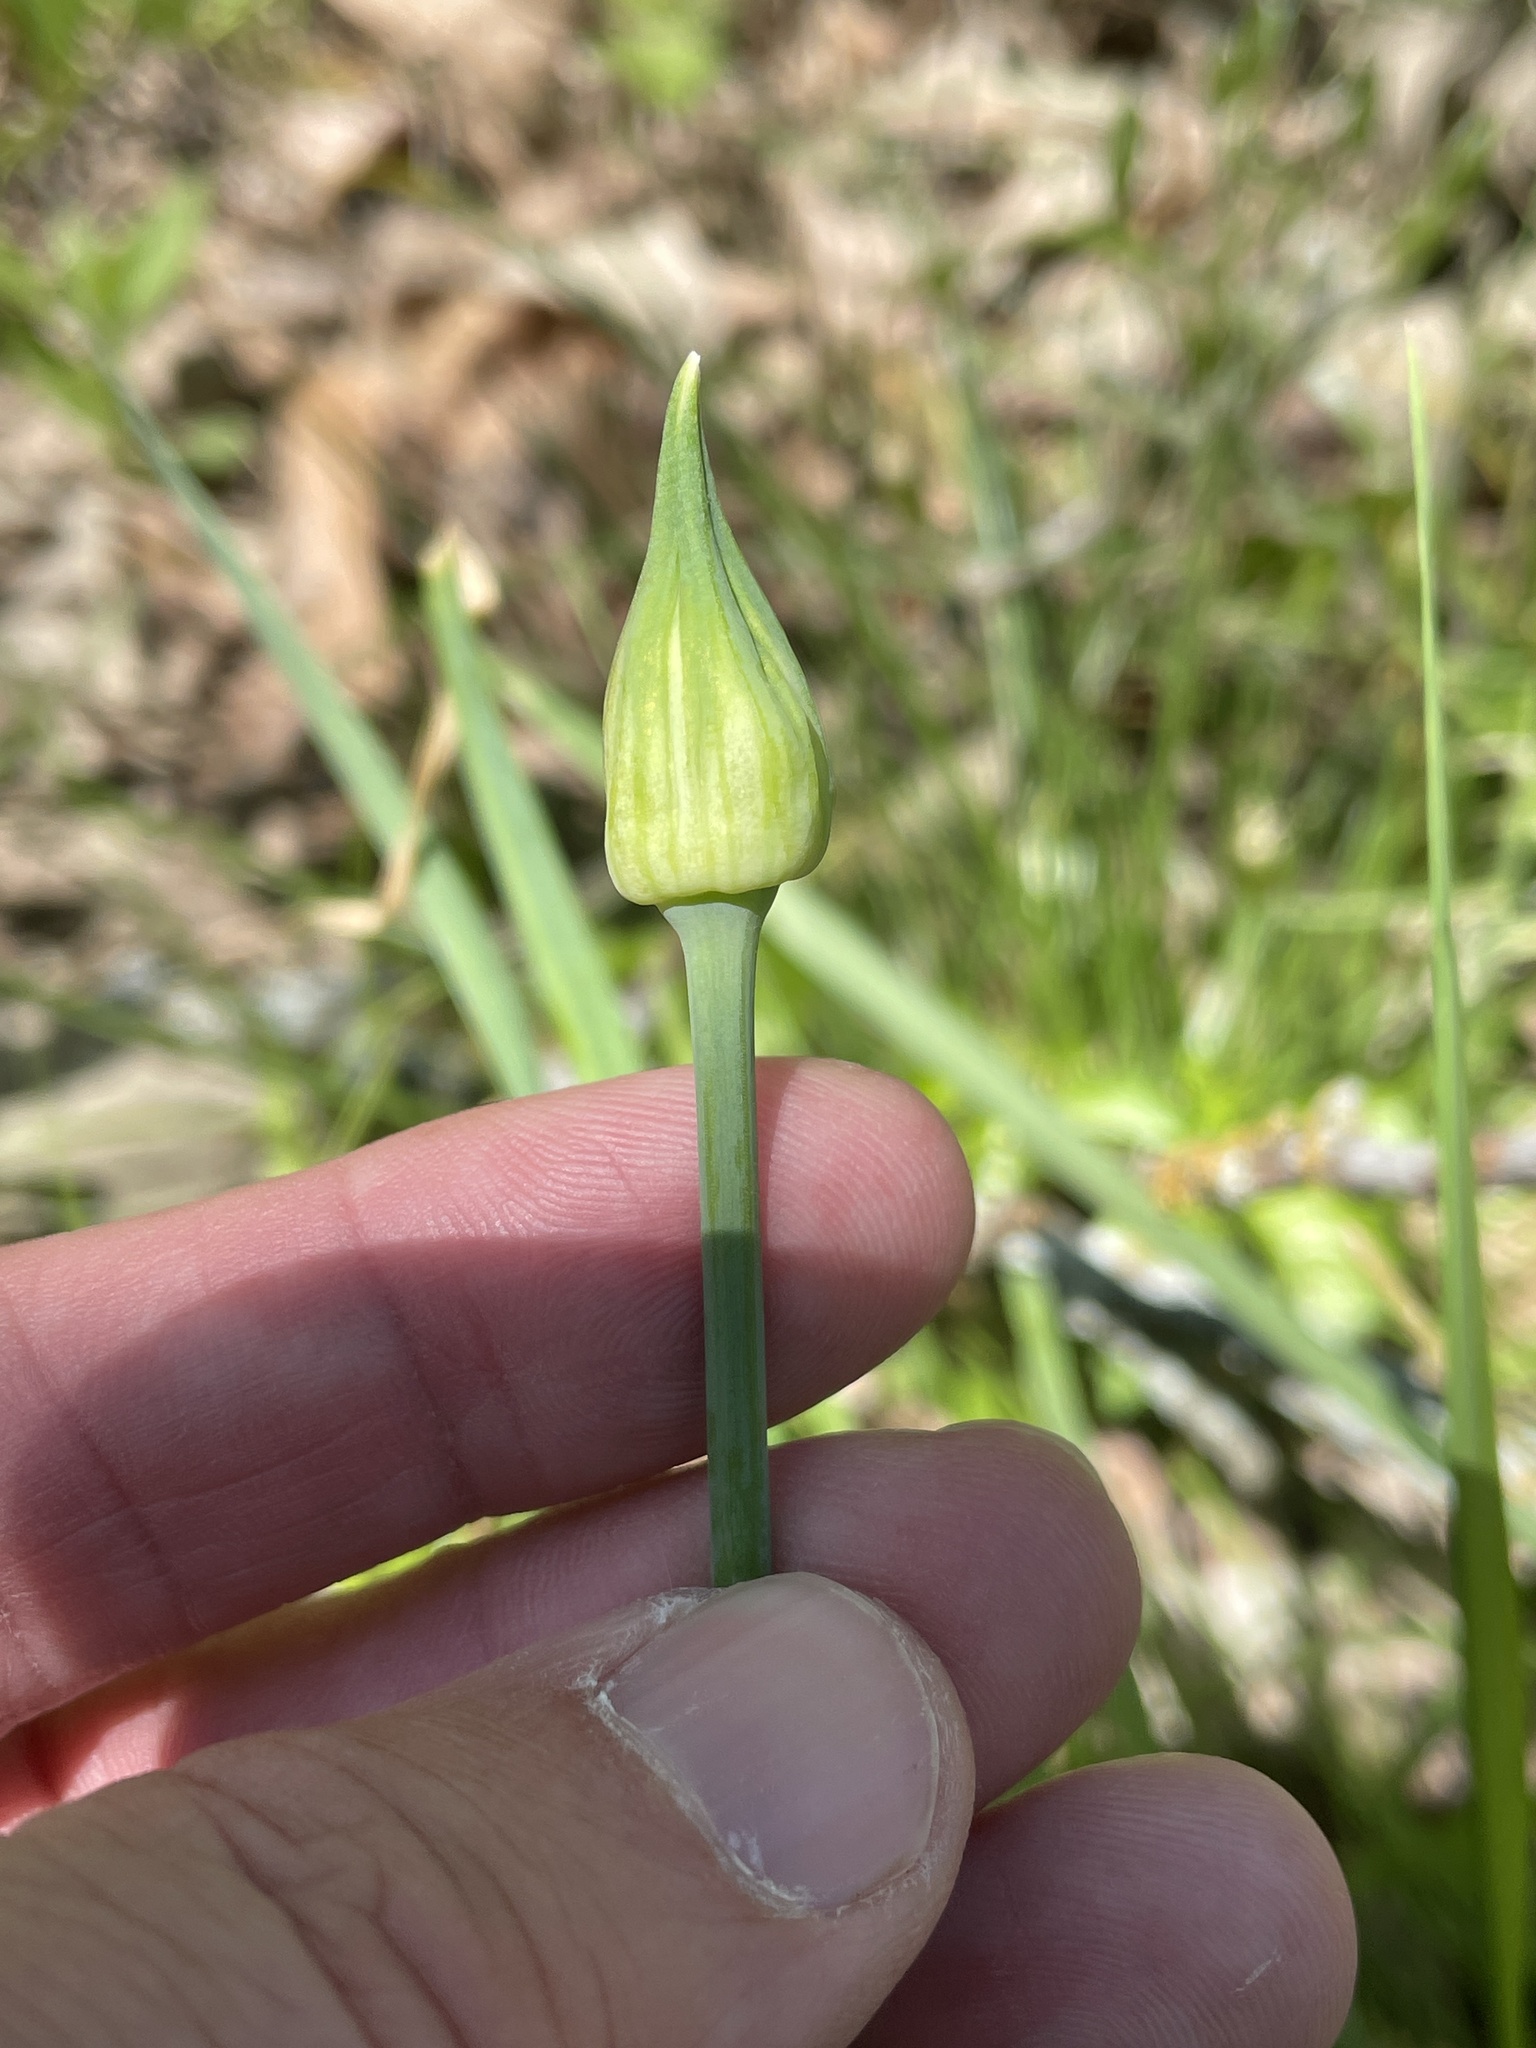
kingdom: Plantae
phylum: Tracheophyta
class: Liliopsida
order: Asparagales
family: Amaryllidaceae
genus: Allium
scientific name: Allium canadense
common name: Meadow garlic
